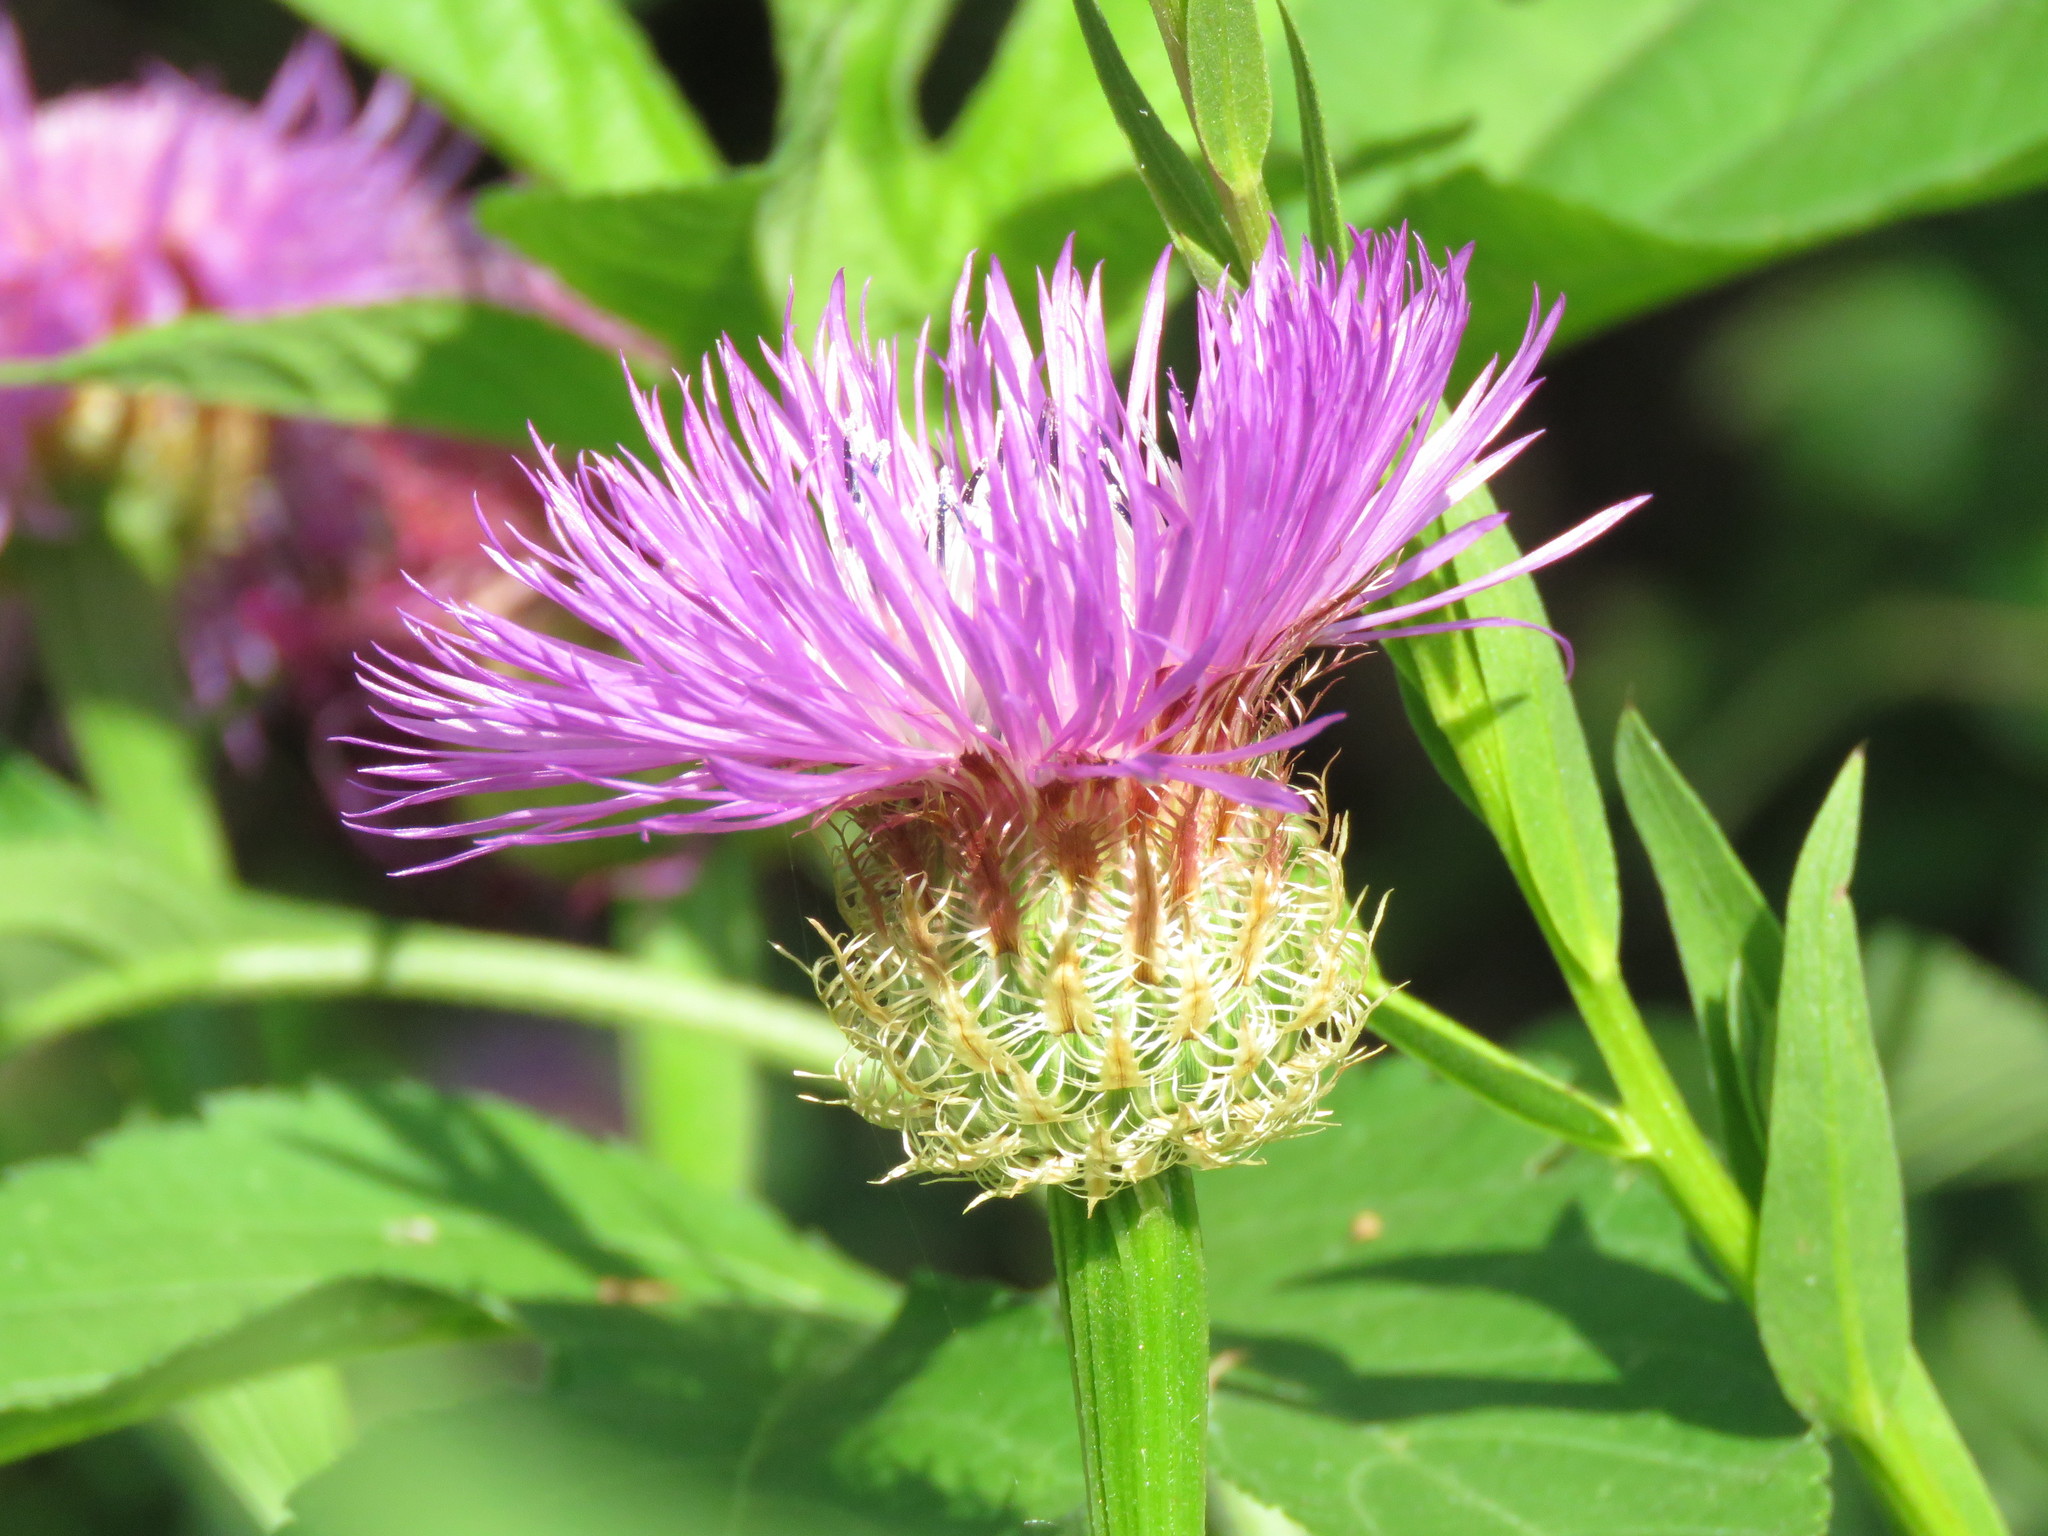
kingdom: Plantae
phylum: Tracheophyta
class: Magnoliopsida
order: Asterales
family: Asteraceae
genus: Plectocephalus
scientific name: Plectocephalus americanus
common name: American basket-flower
